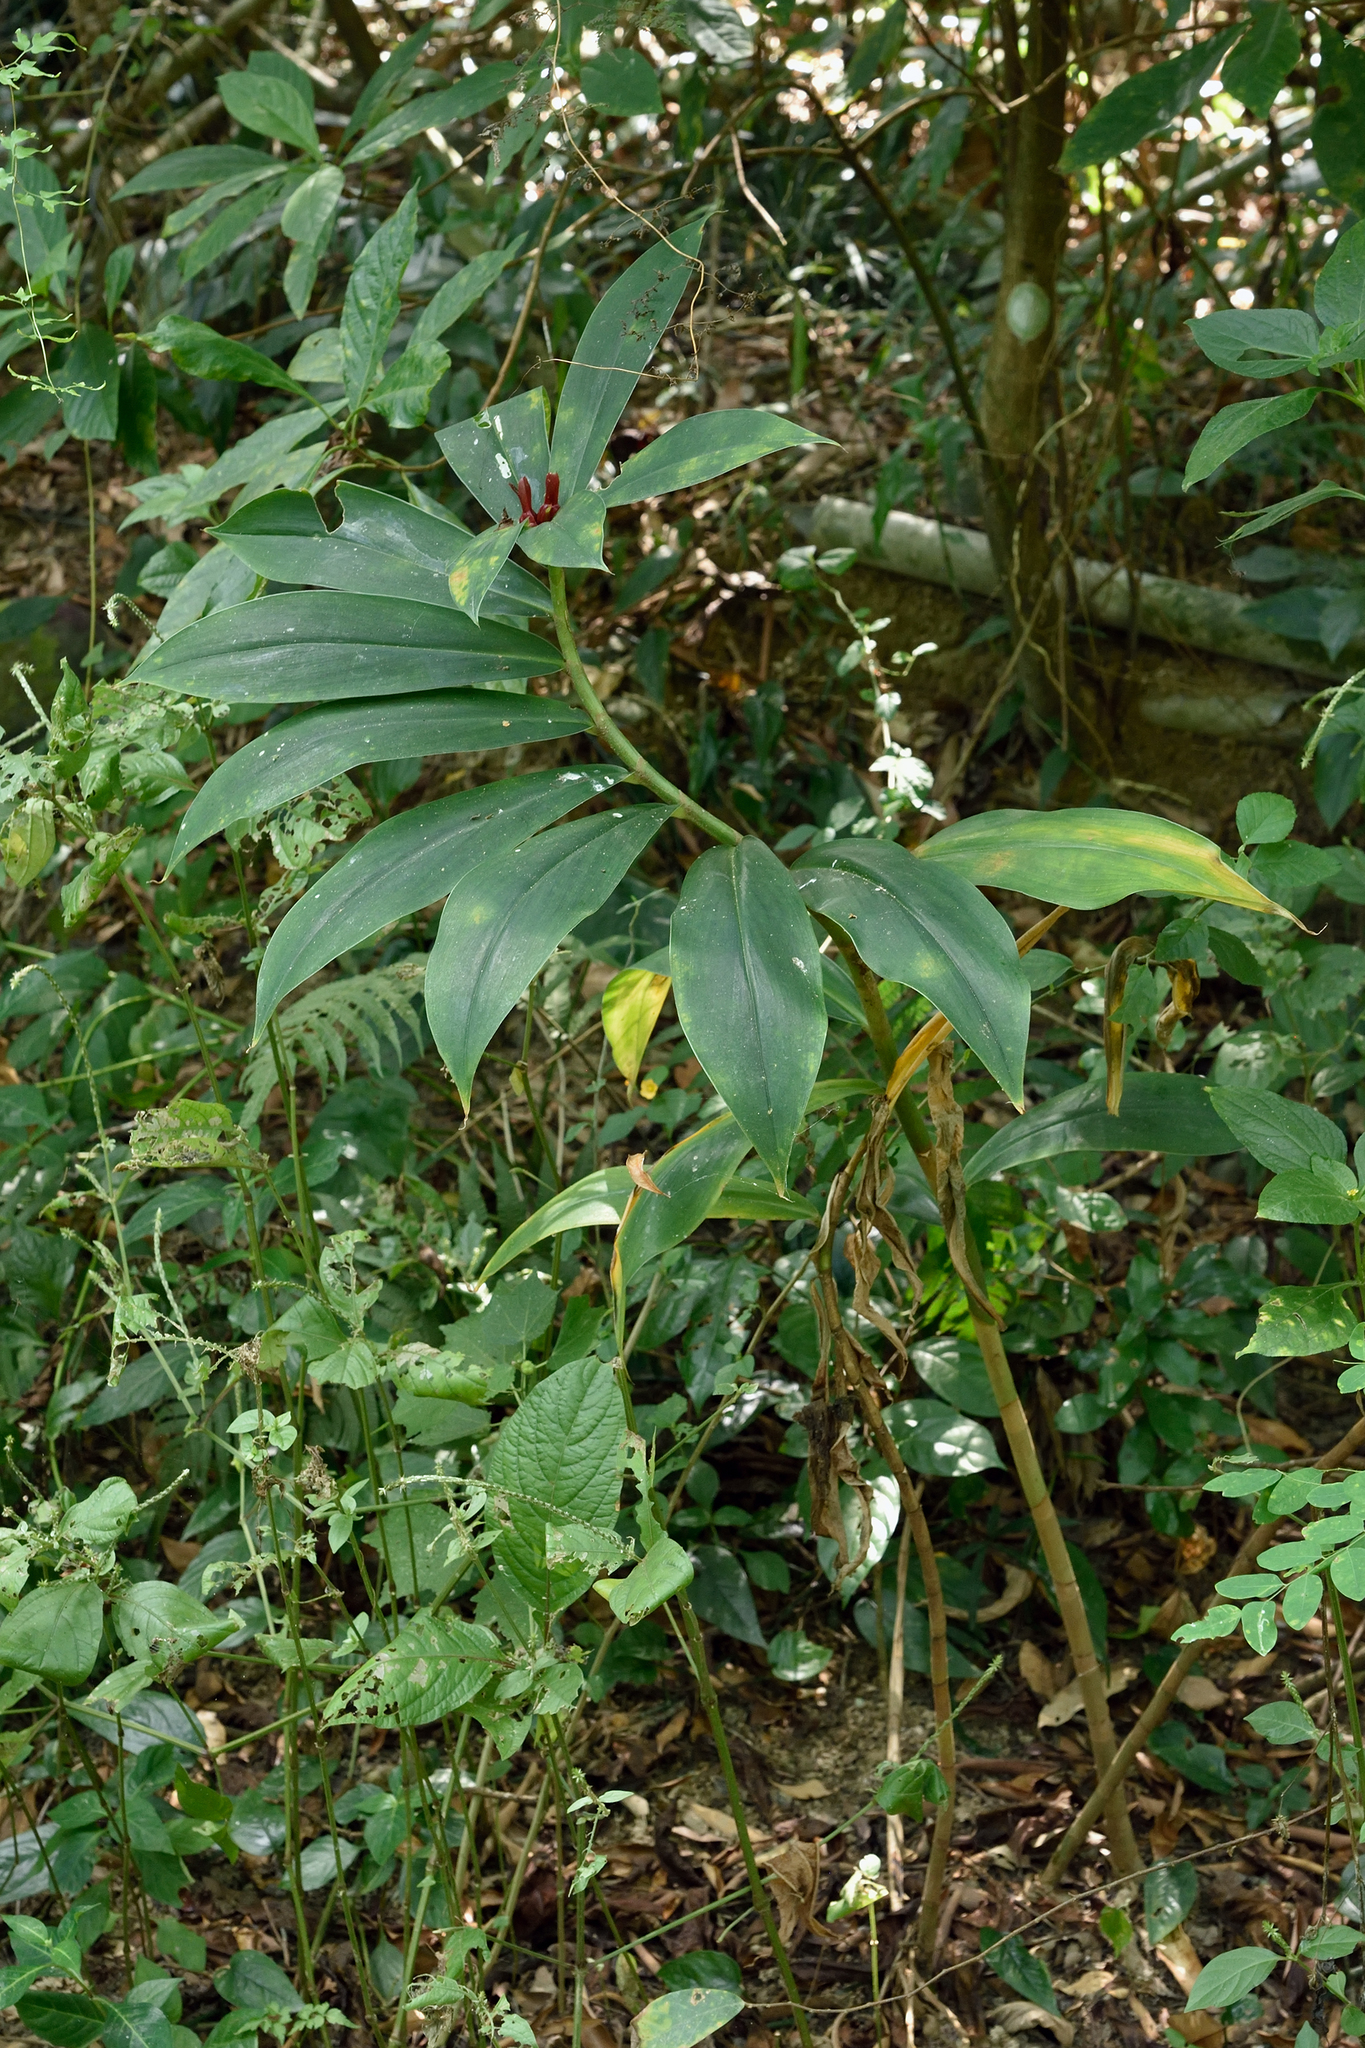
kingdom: Plantae
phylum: Tracheophyta
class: Liliopsida
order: Zingiberales
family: Costaceae
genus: Hellenia
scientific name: Hellenia speciosa
